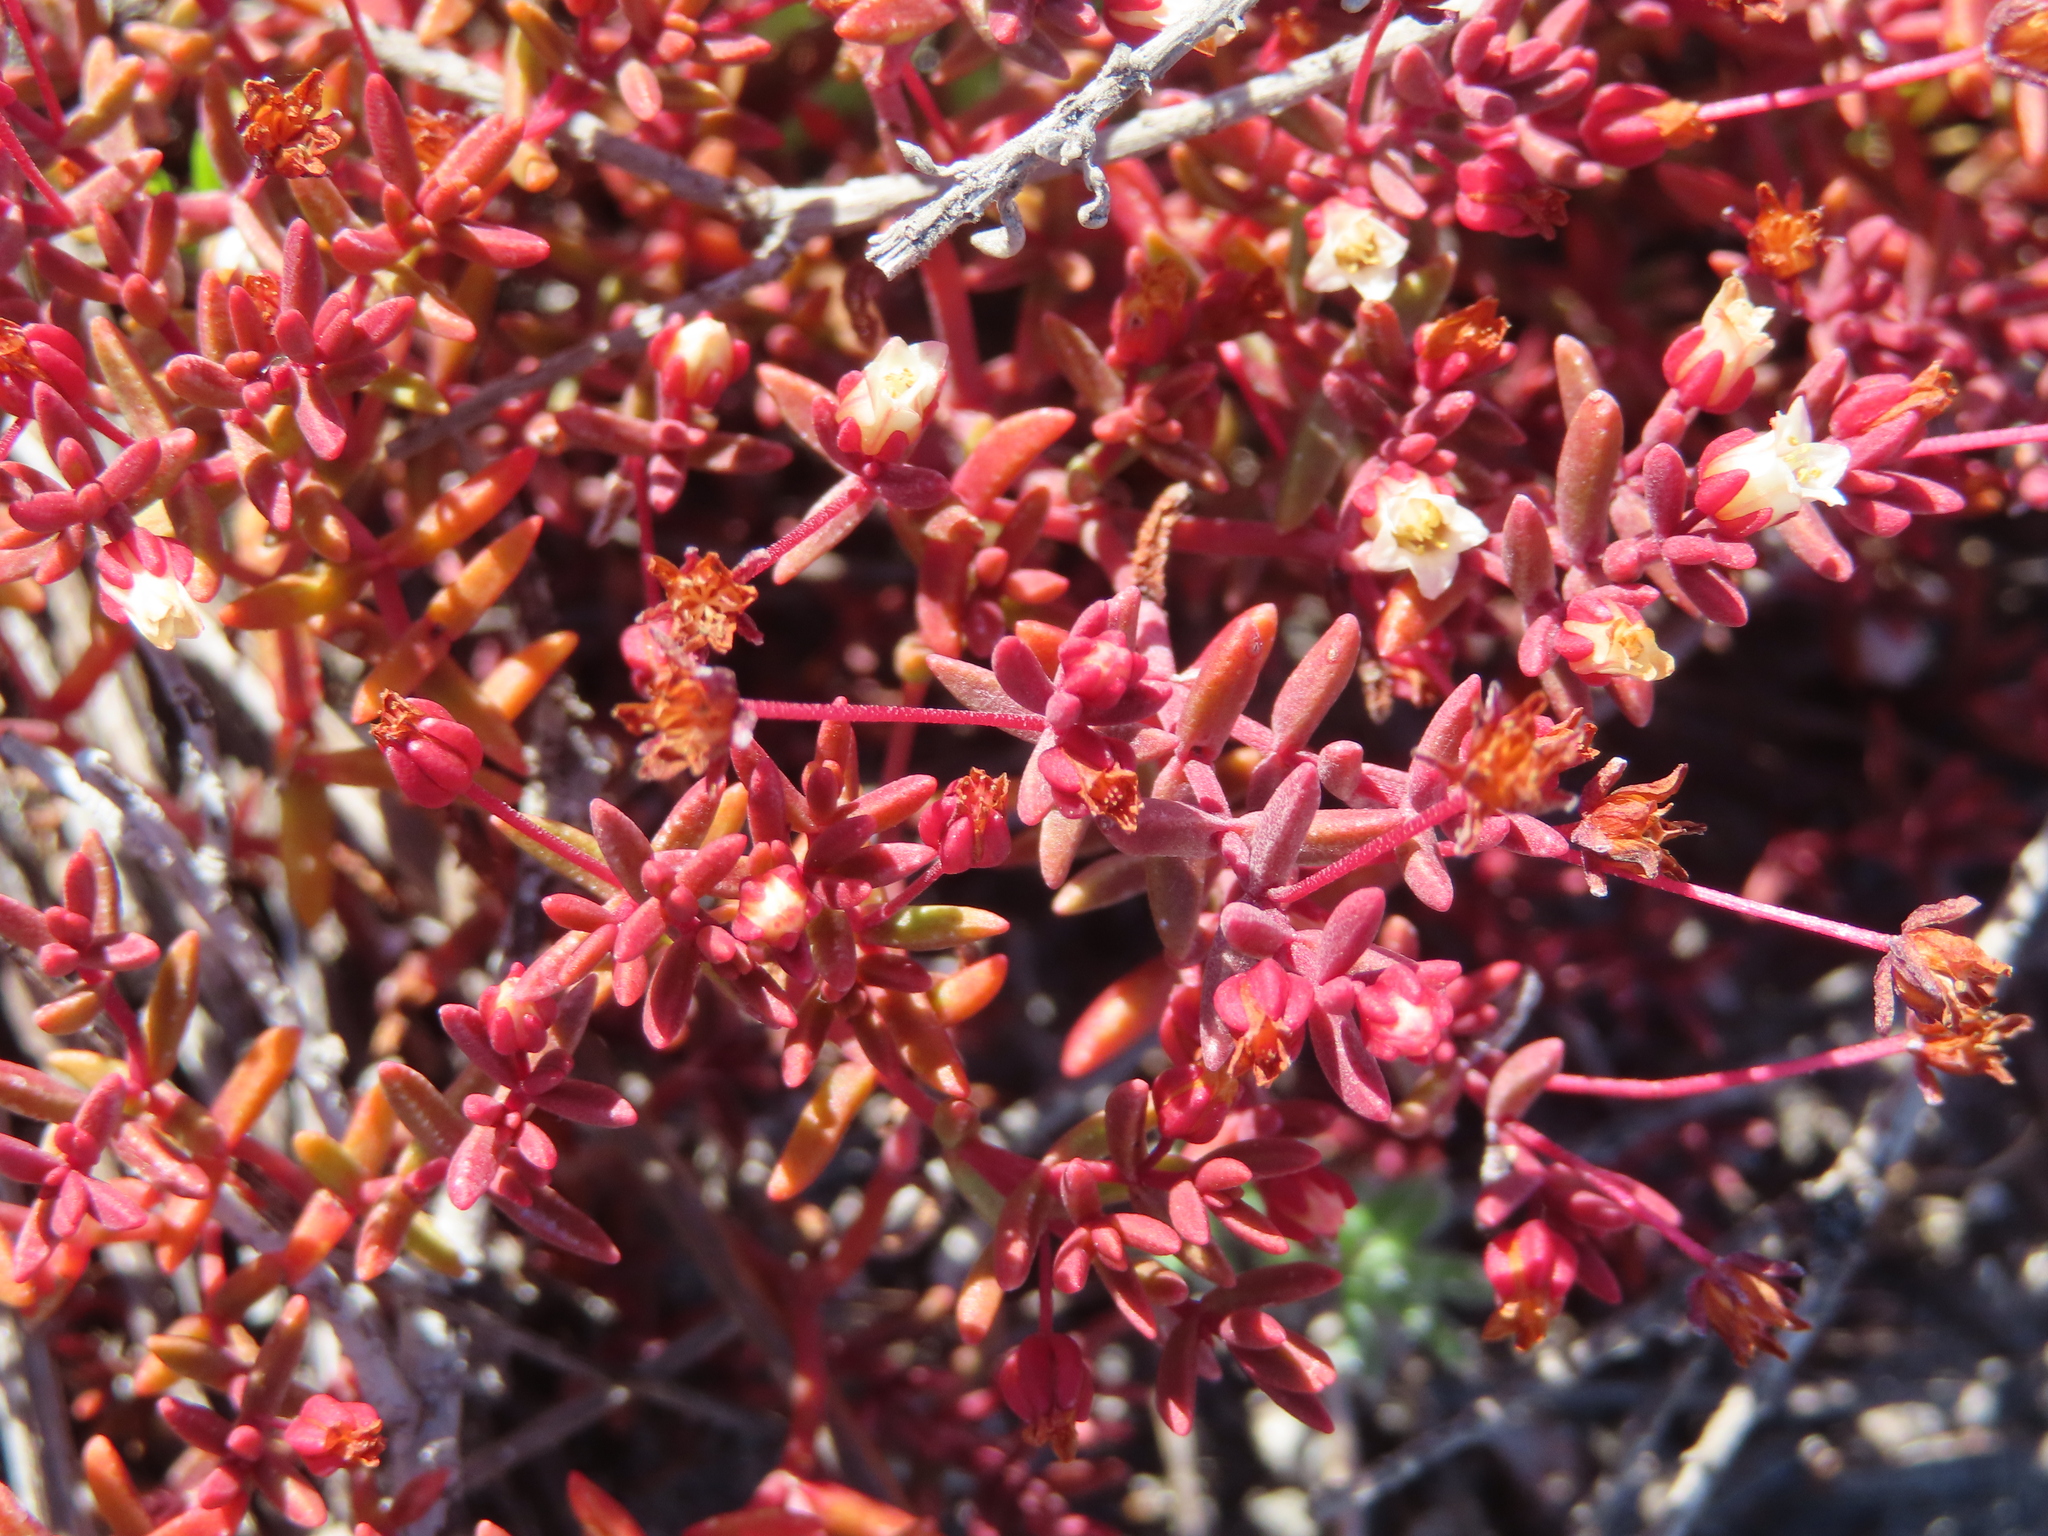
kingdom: Plantae
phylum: Tracheophyta
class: Magnoliopsida
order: Saxifragales
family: Crassulaceae
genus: Crassula
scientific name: Crassula expansa
